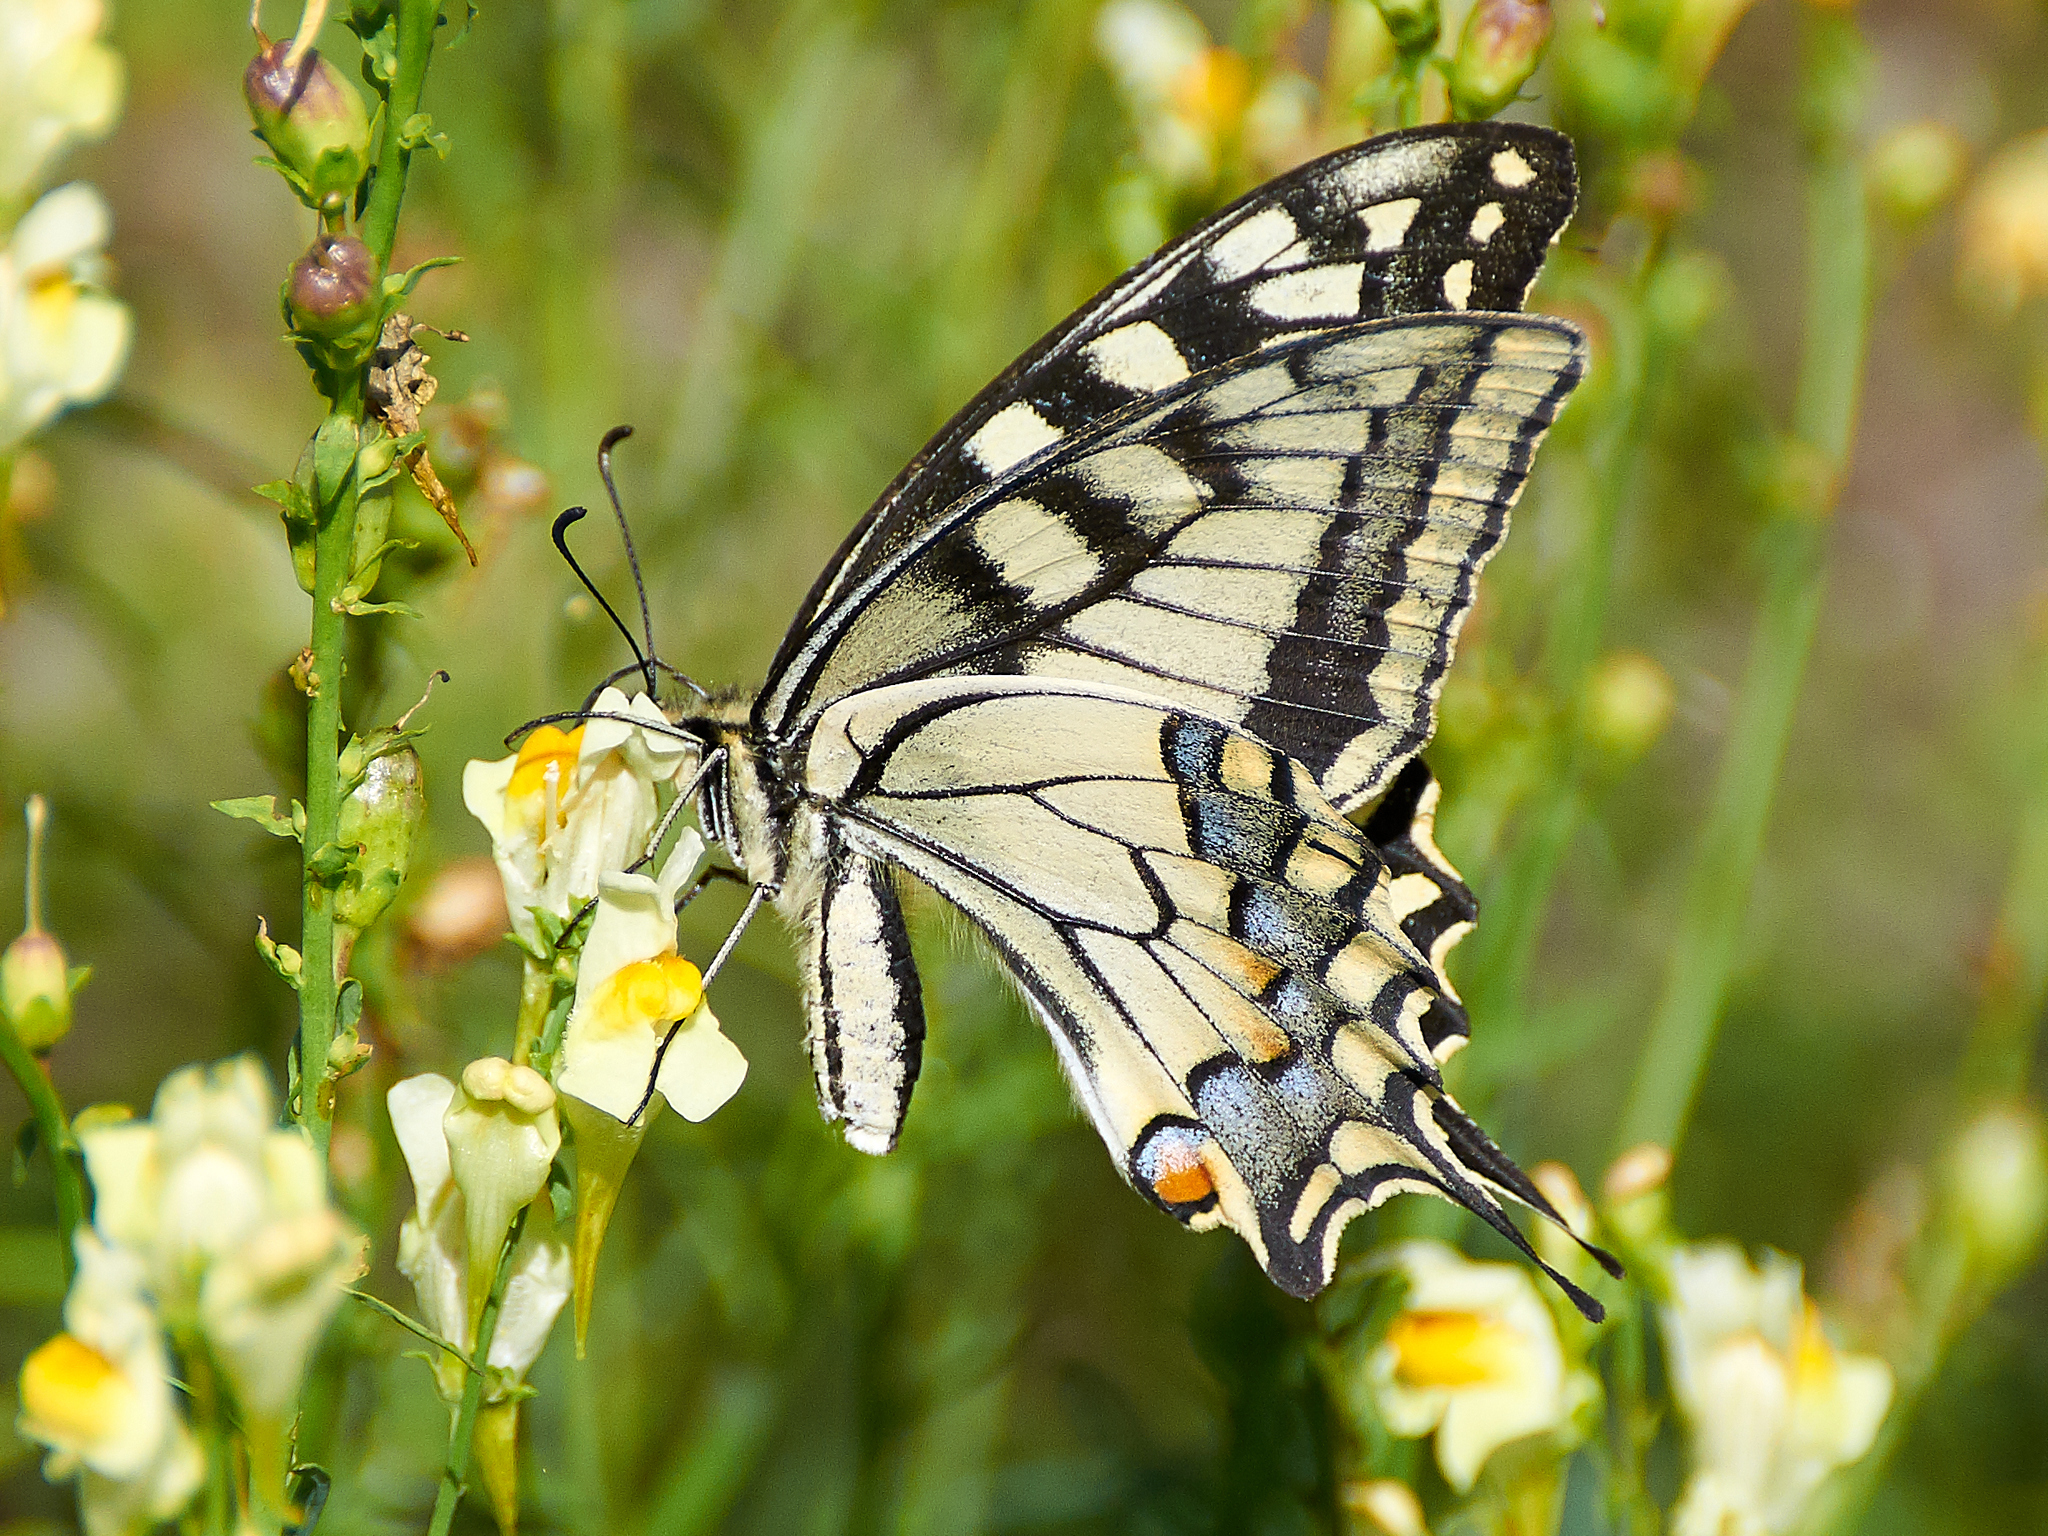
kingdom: Animalia
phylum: Arthropoda
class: Insecta
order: Lepidoptera
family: Papilionidae
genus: Papilio
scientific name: Papilio machaon
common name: Swallowtail
